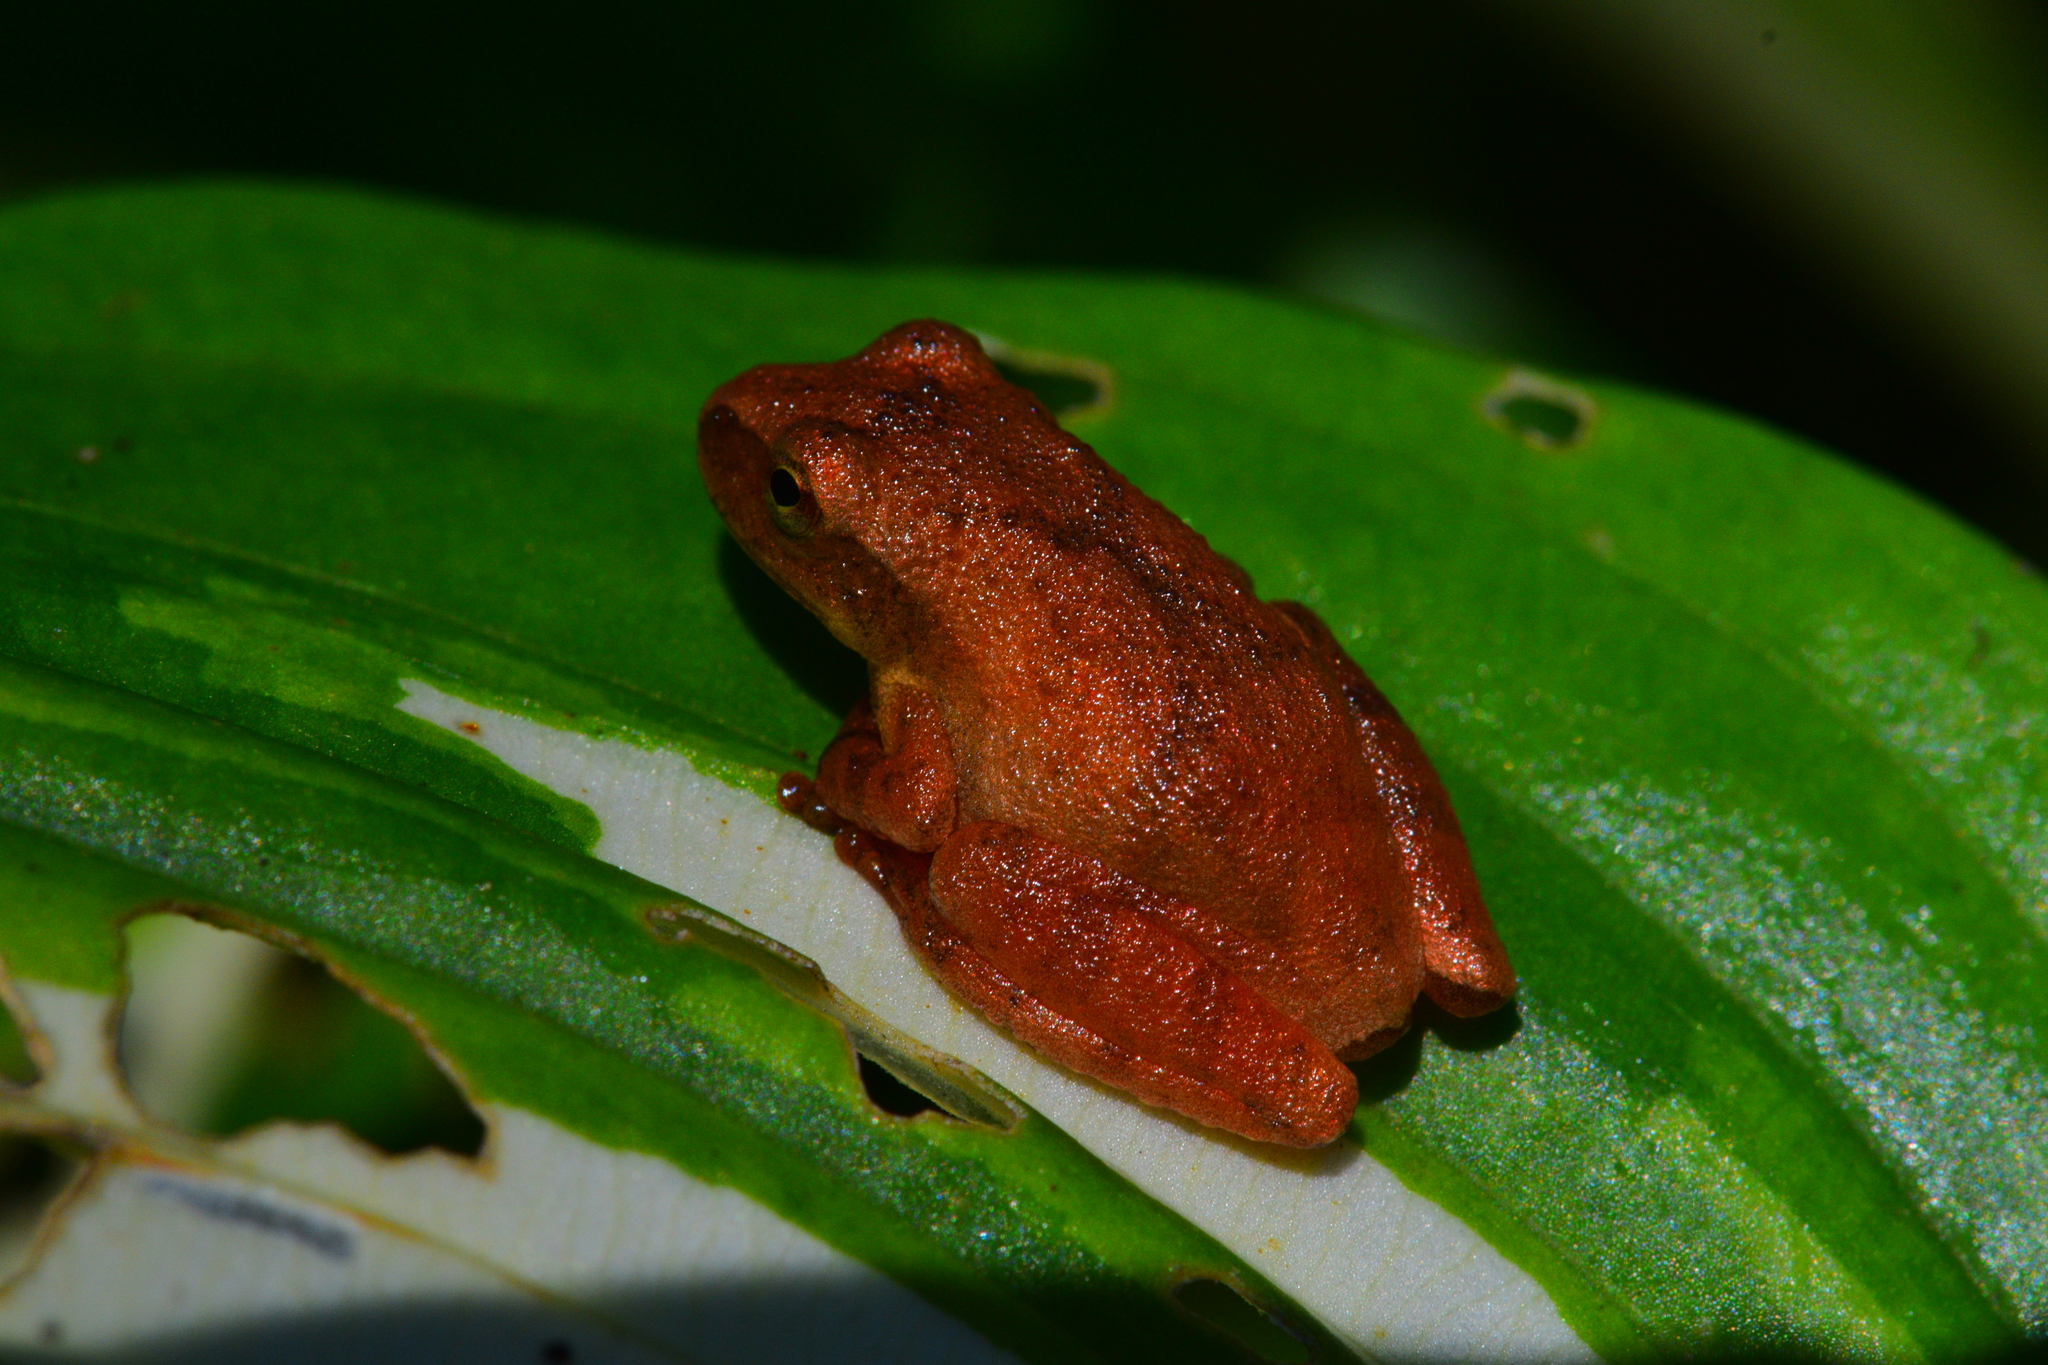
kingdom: Animalia
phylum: Chordata
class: Amphibia
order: Anura
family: Hylidae
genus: Pseudacris
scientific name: Pseudacris crucifer
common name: Spring peeper
